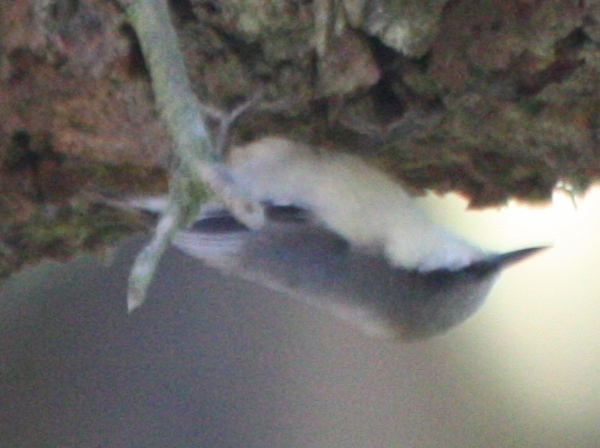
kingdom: Animalia
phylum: Chordata
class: Aves
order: Passeriformes
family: Sittidae
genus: Sitta
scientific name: Sitta pygmaea
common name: Pygmy nuthatch
